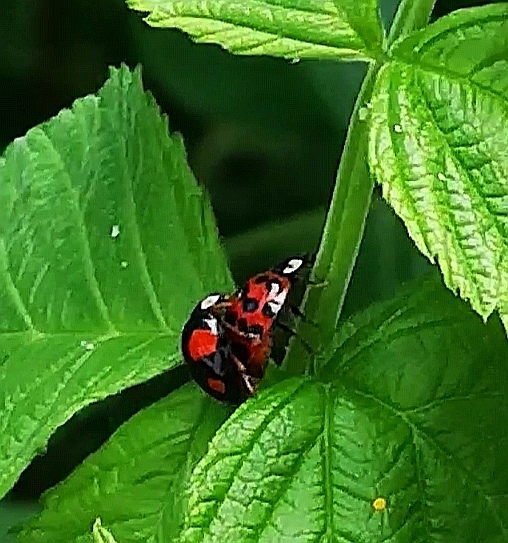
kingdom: Animalia
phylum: Arthropoda
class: Insecta
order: Coleoptera
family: Coccinellidae
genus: Harmonia
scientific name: Harmonia axyridis
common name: Harlequin ladybird
